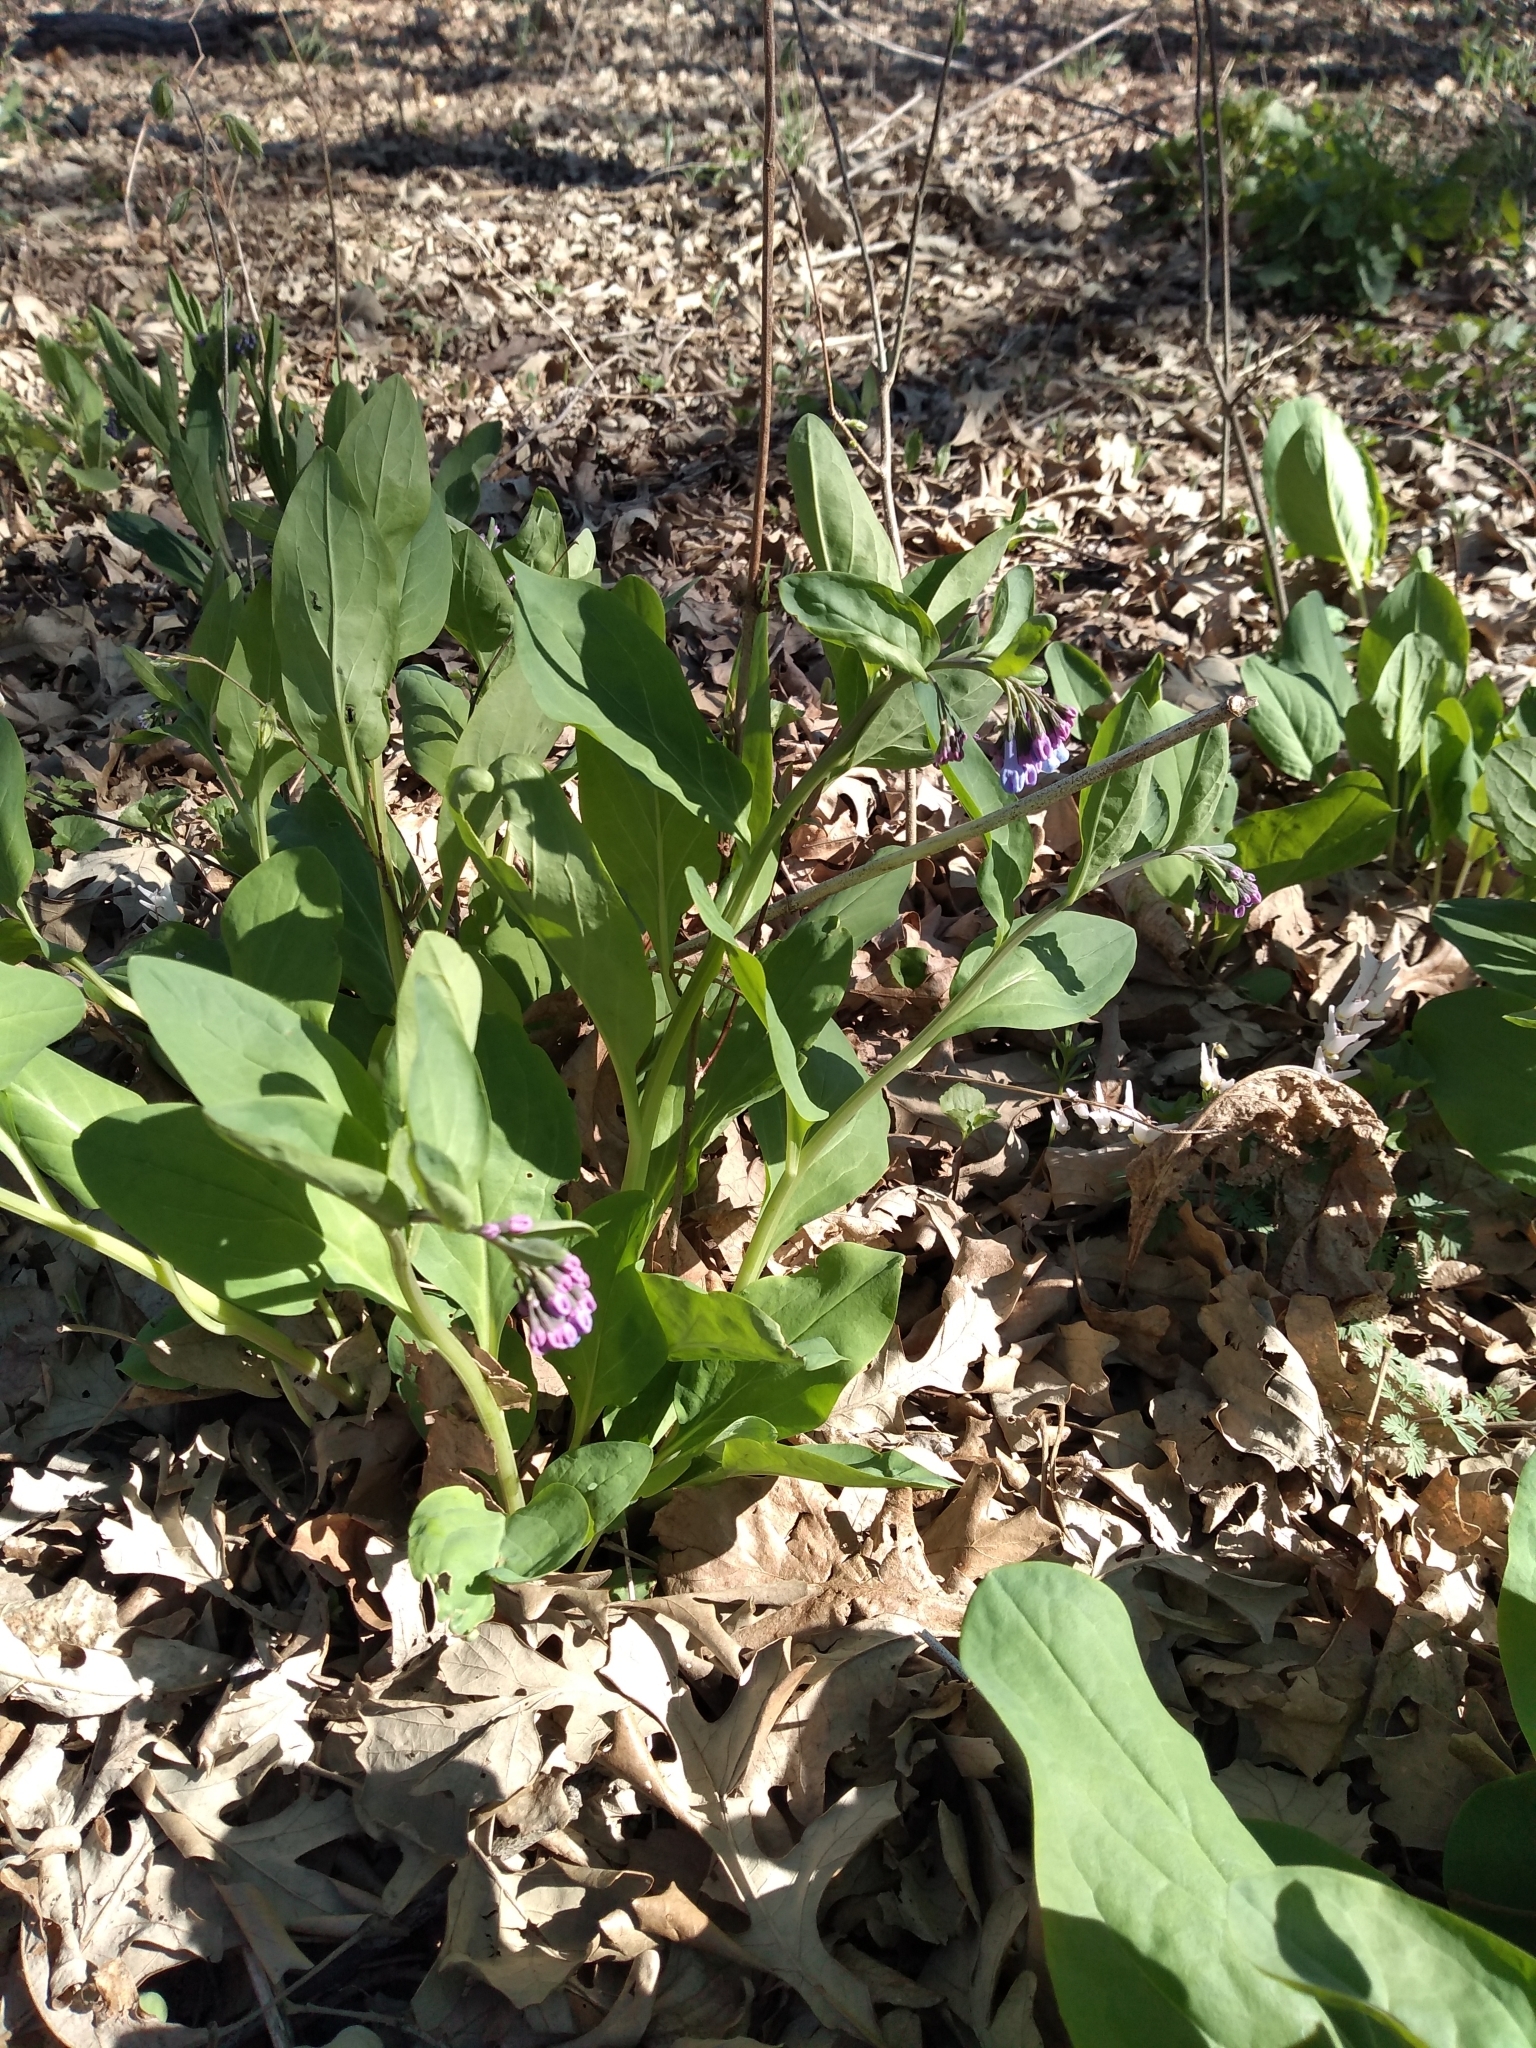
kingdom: Plantae
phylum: Tracheophyta
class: Magnoliopsida
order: Boraginales
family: Boraginaceae
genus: Mertensia
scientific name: Mertensia virginica
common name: Virginia bluebells
